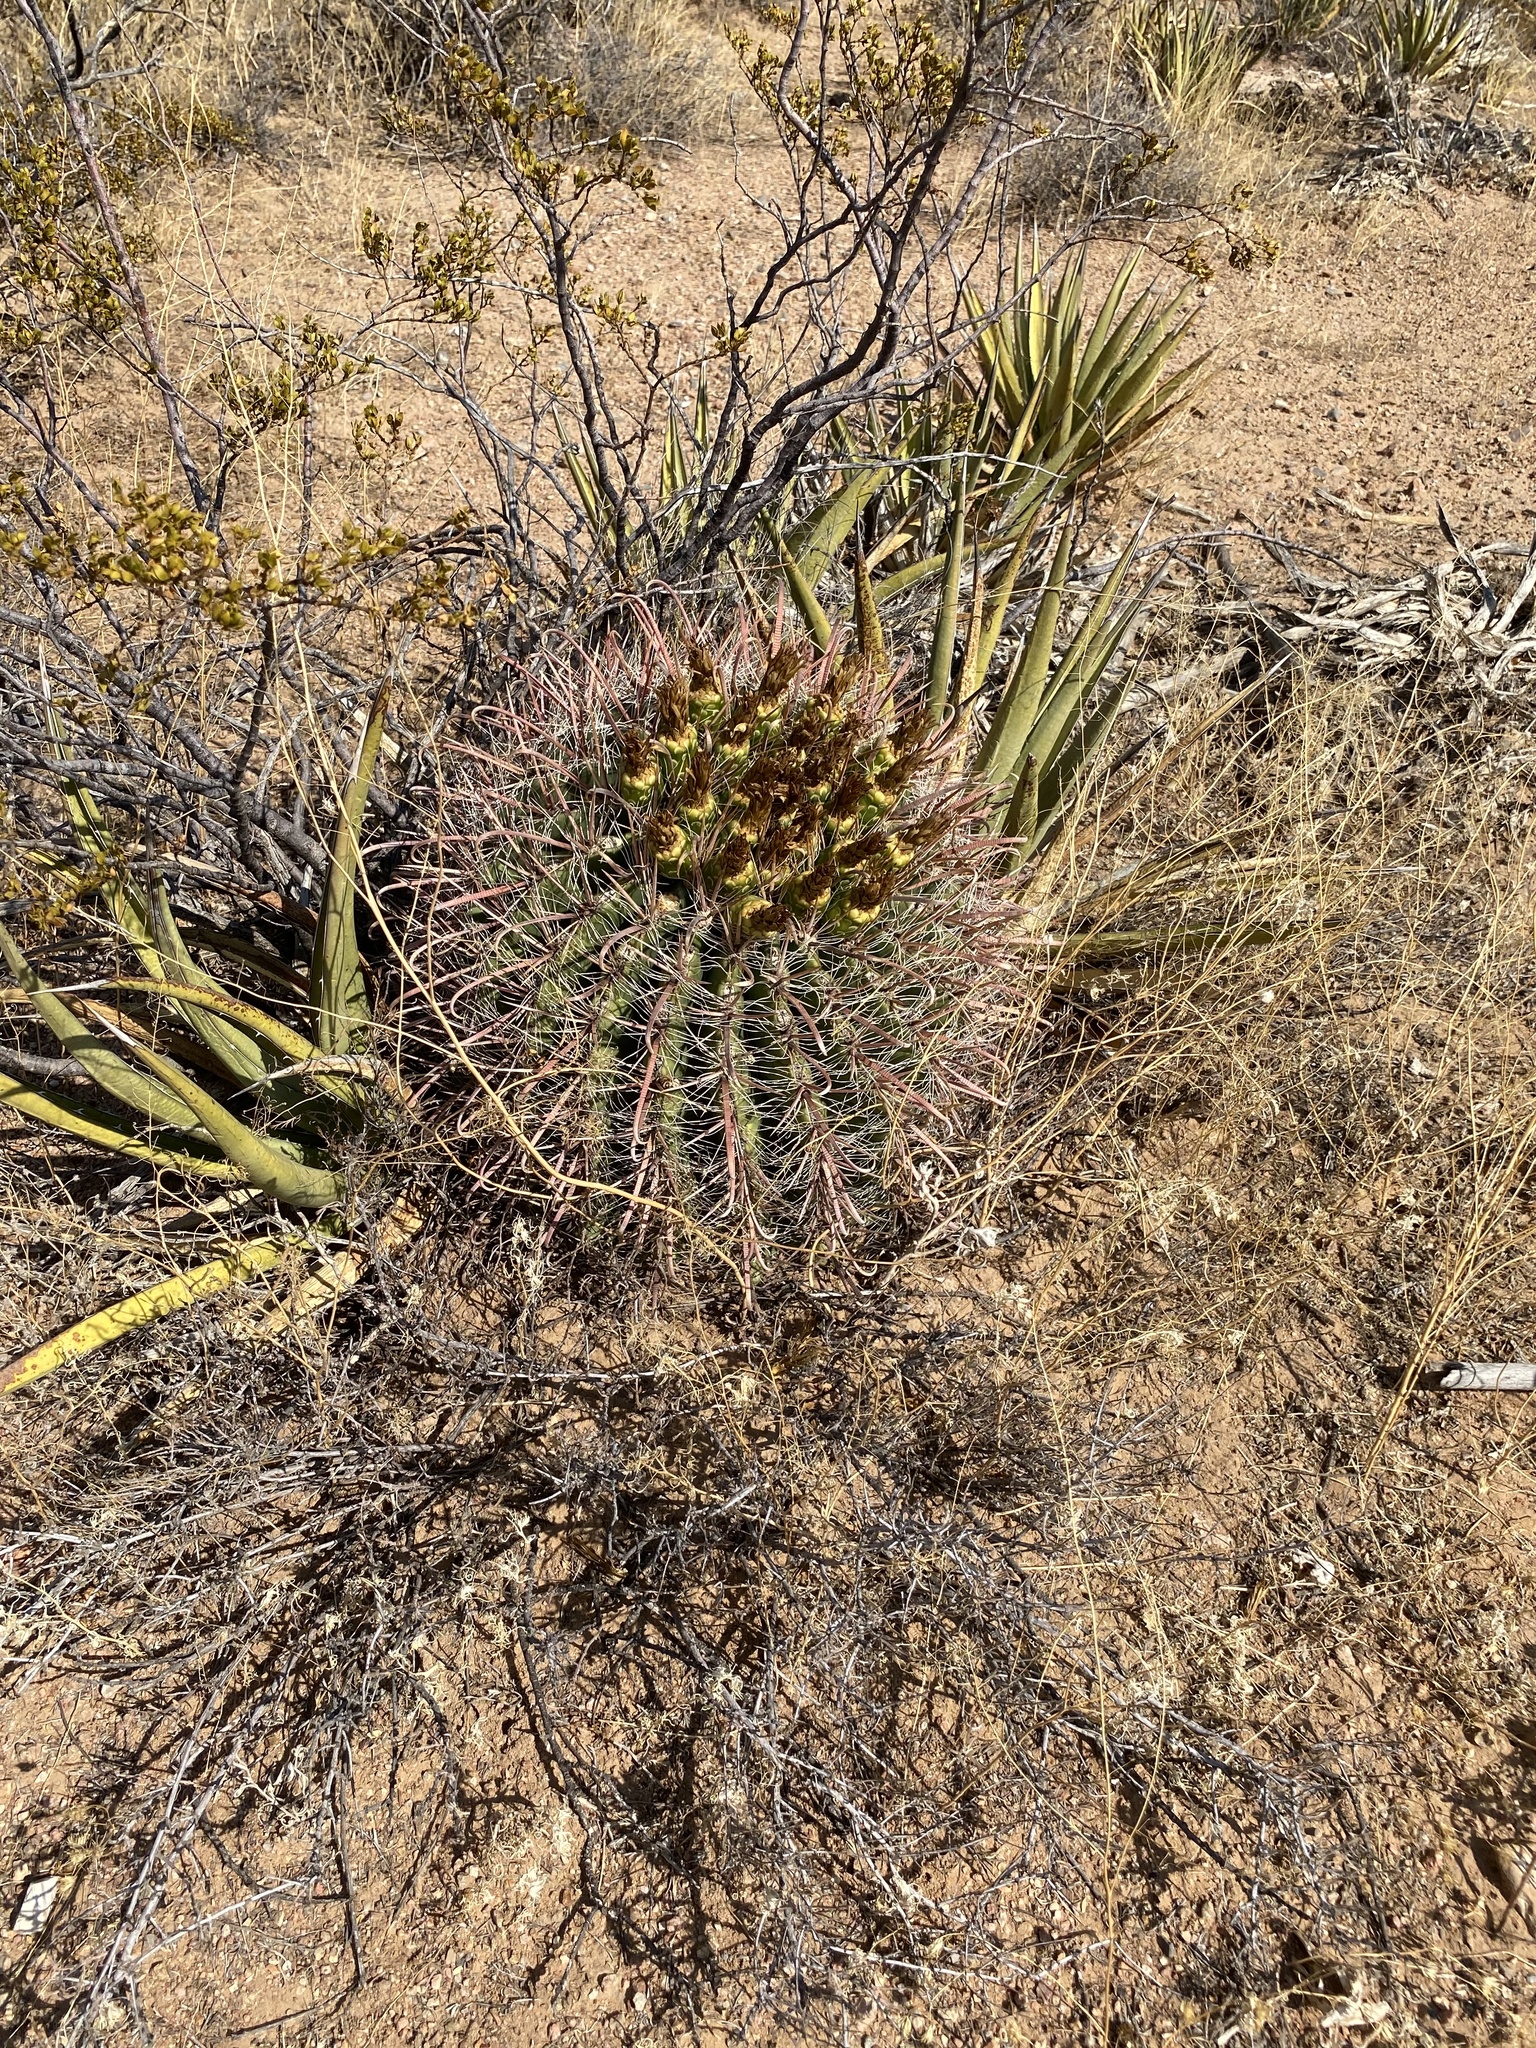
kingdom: Plantae
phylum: Tracheophyta
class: Magnoliopsida
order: Caryophyllales
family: Cactaceae
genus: Ferocactus
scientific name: Ferocactus wislizeni
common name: Candy barrel cactus
